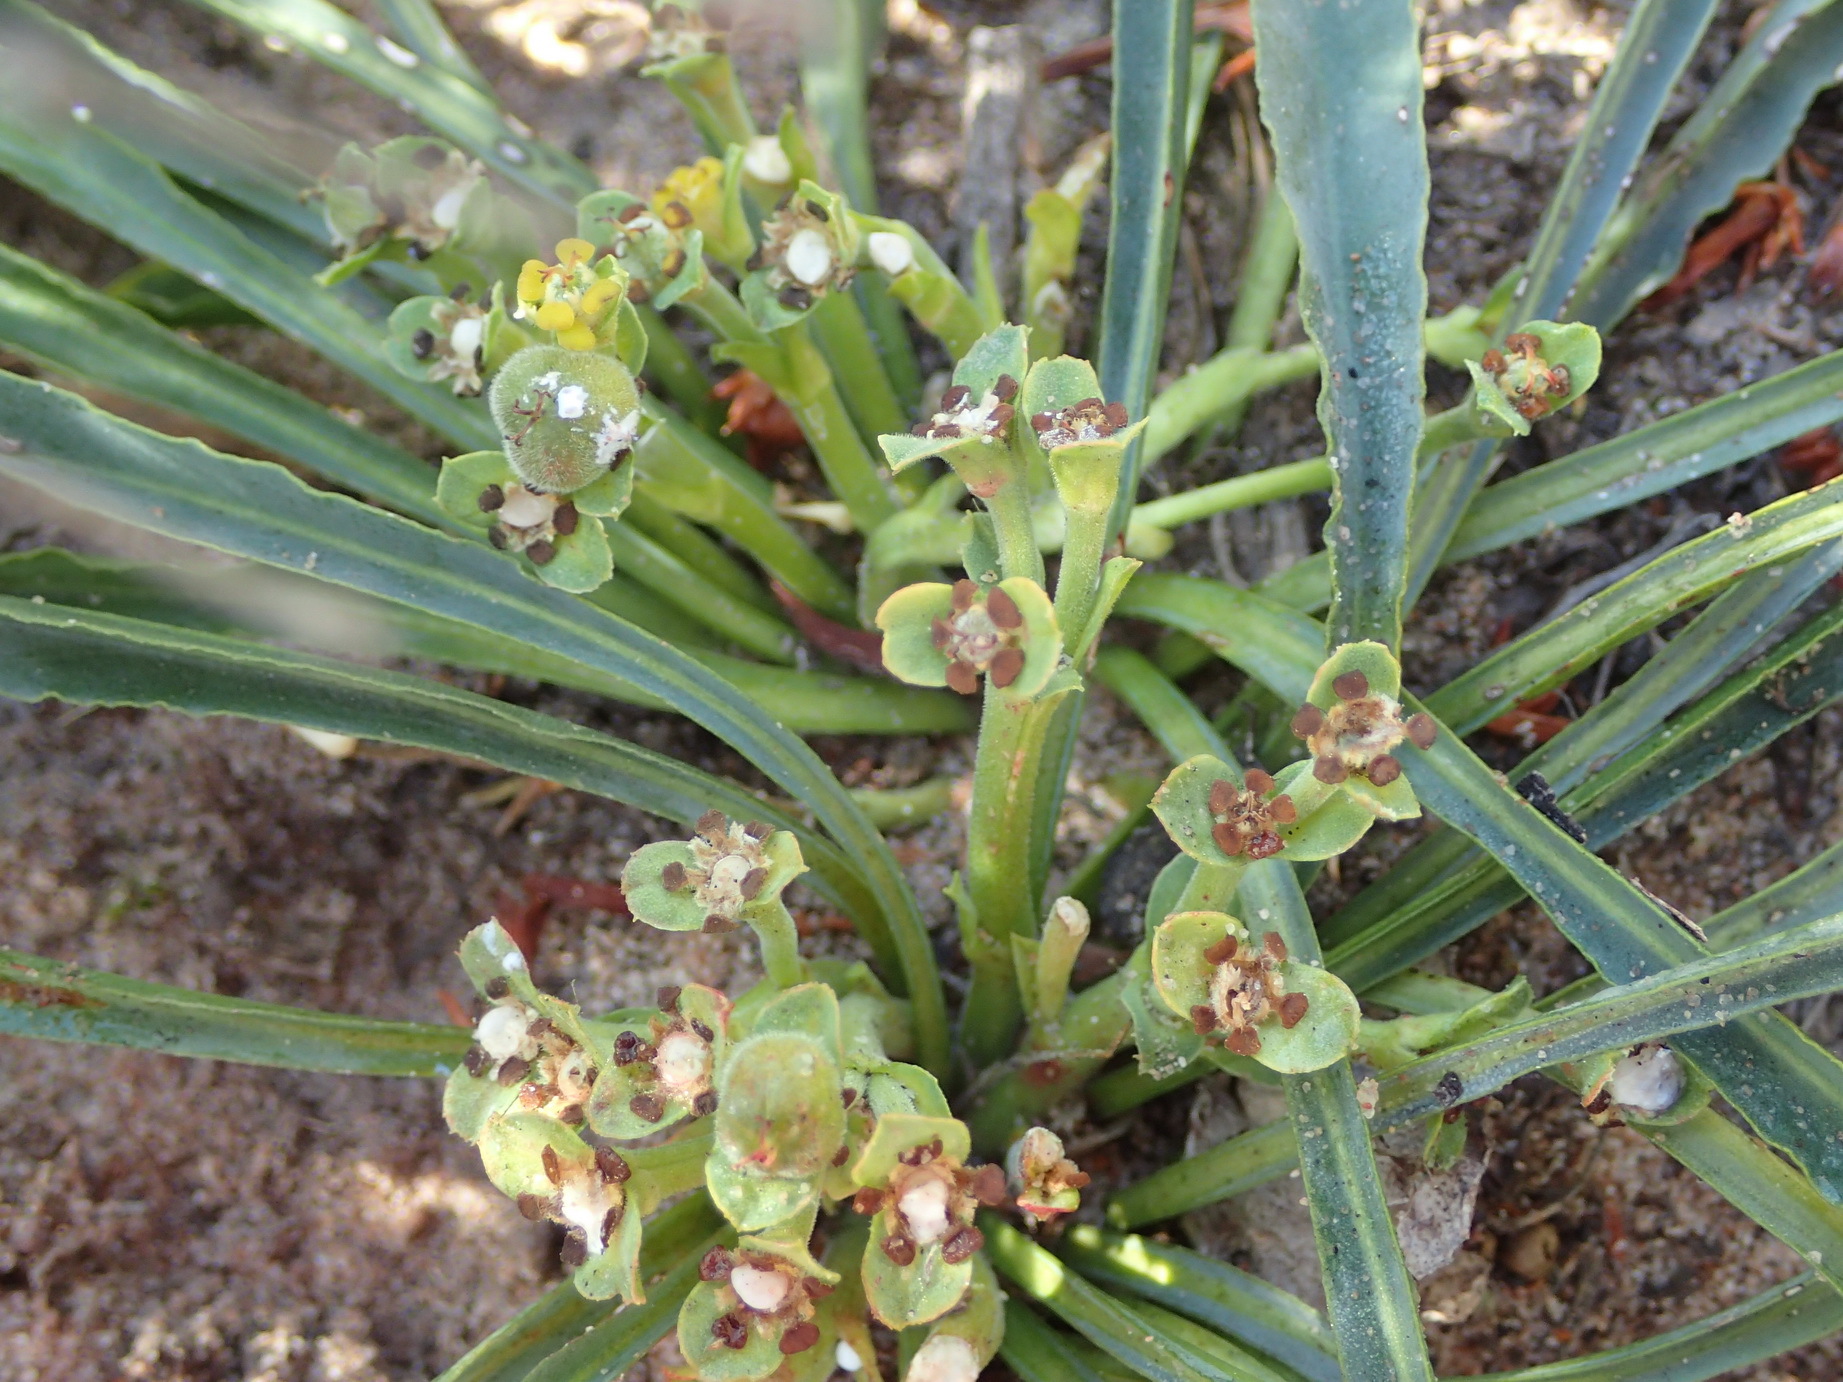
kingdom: Plantae
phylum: Tracheophyta
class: Magnoliopsida
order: Malpighiales
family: Euphorbiaceae
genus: Euphorbia
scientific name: Euphorbia silenifolia
